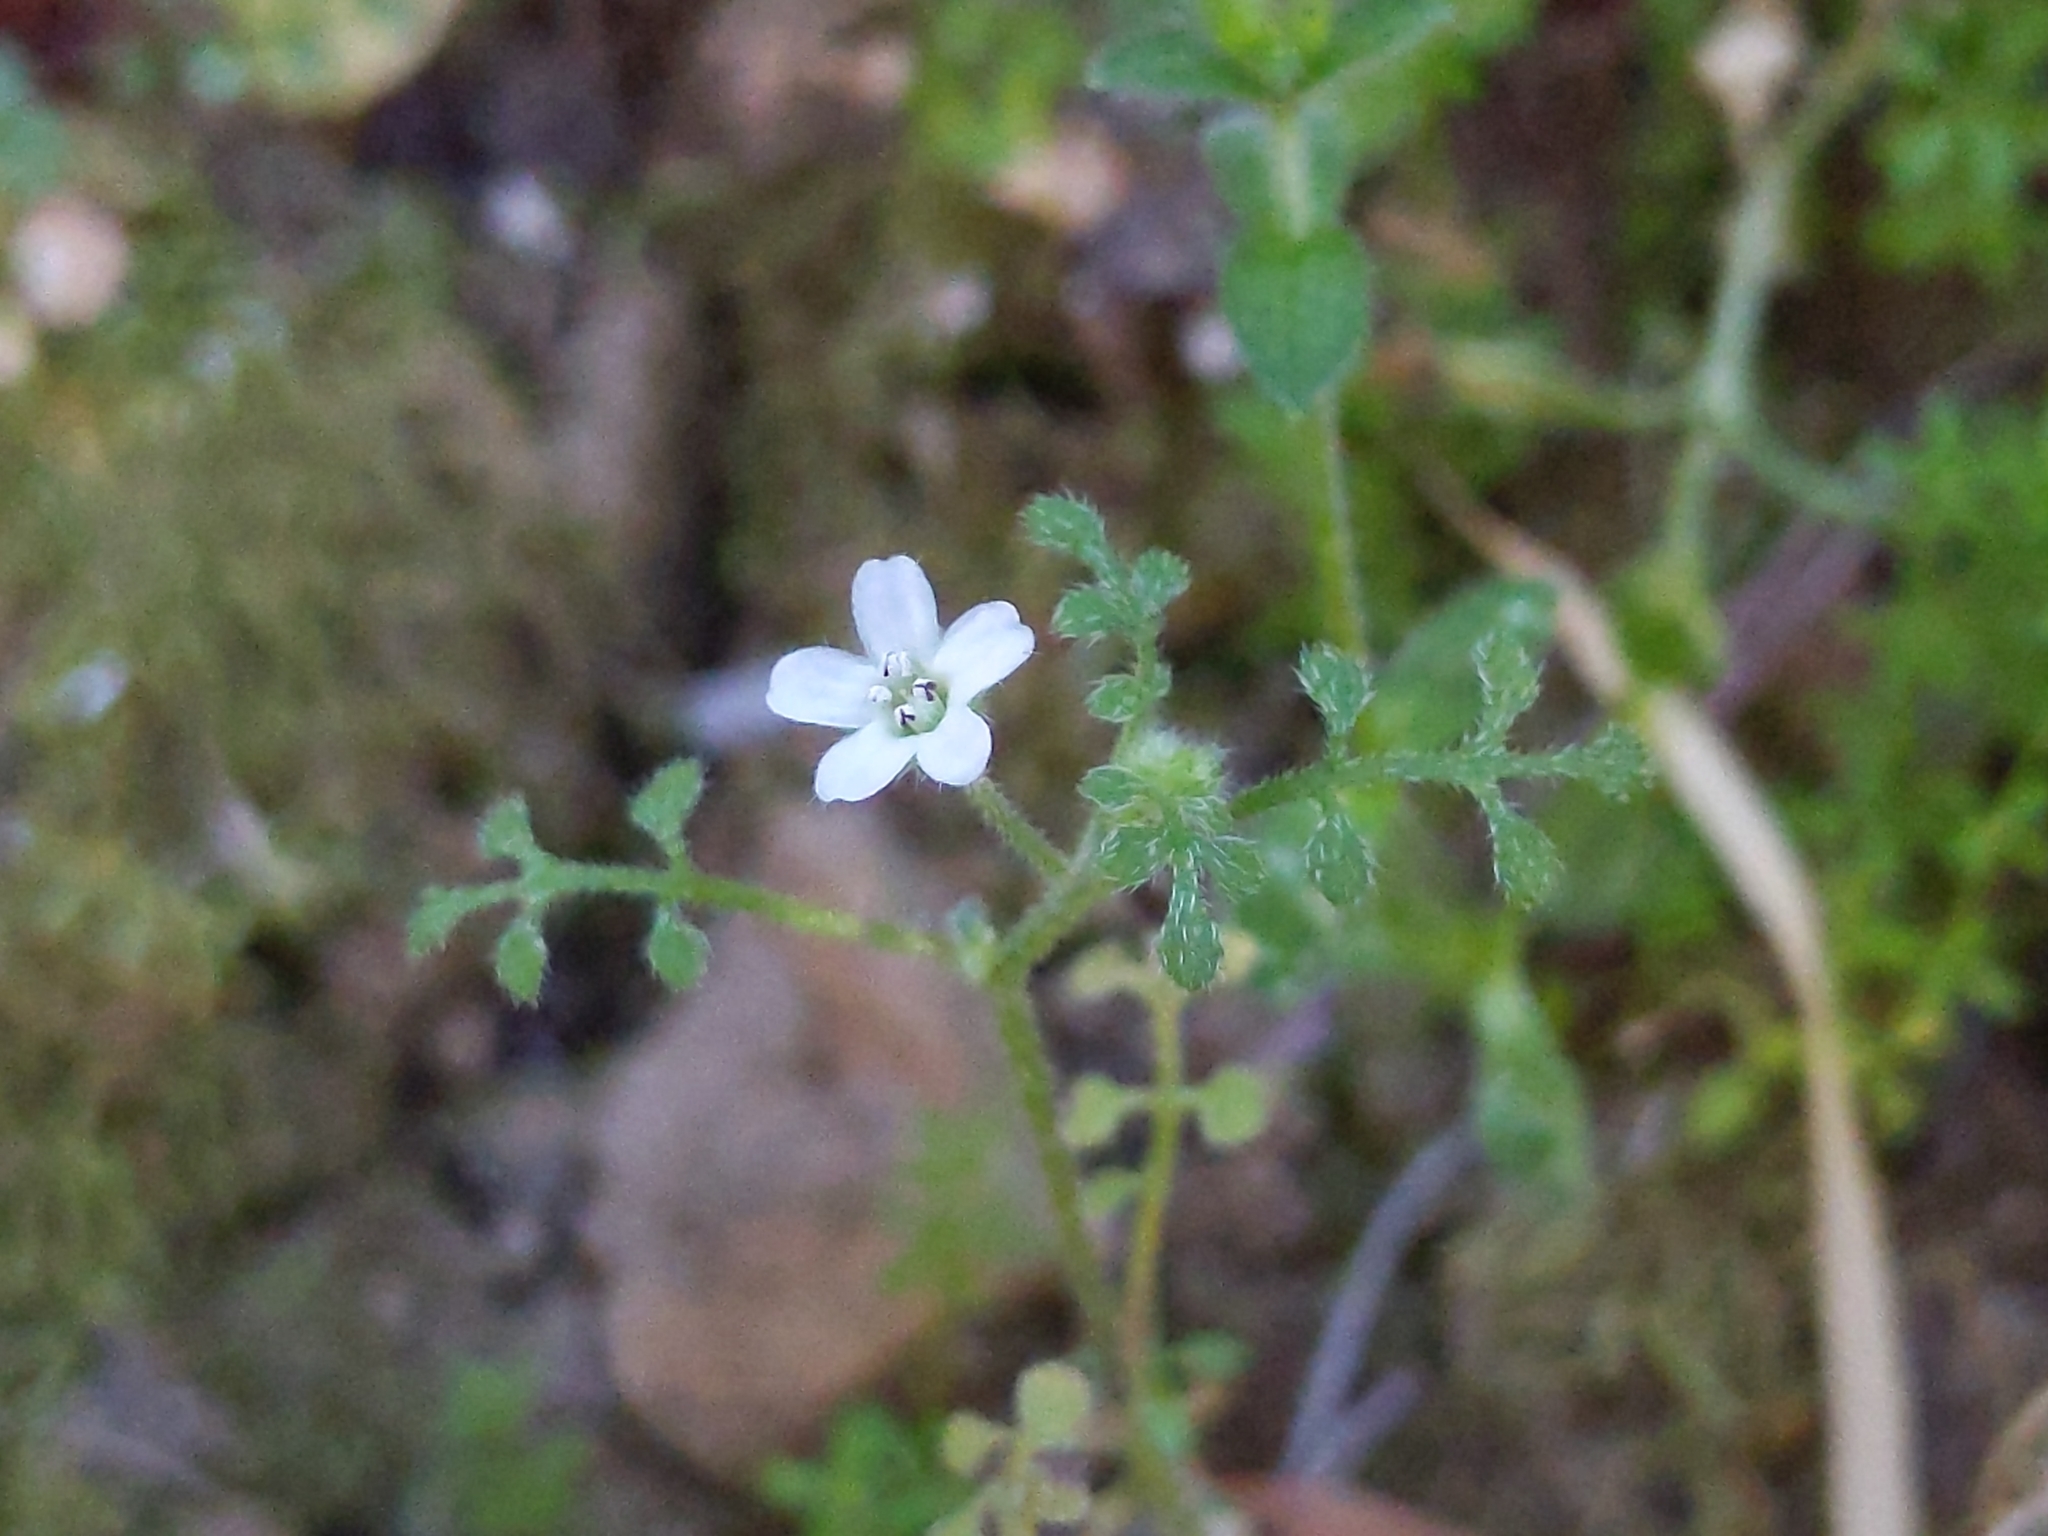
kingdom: Plantae
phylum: Tracheophyta
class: Magnoliopsida
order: Boraginales
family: Hydrophyllaceae
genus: Nemophila
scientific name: Nemophila heterophylla
